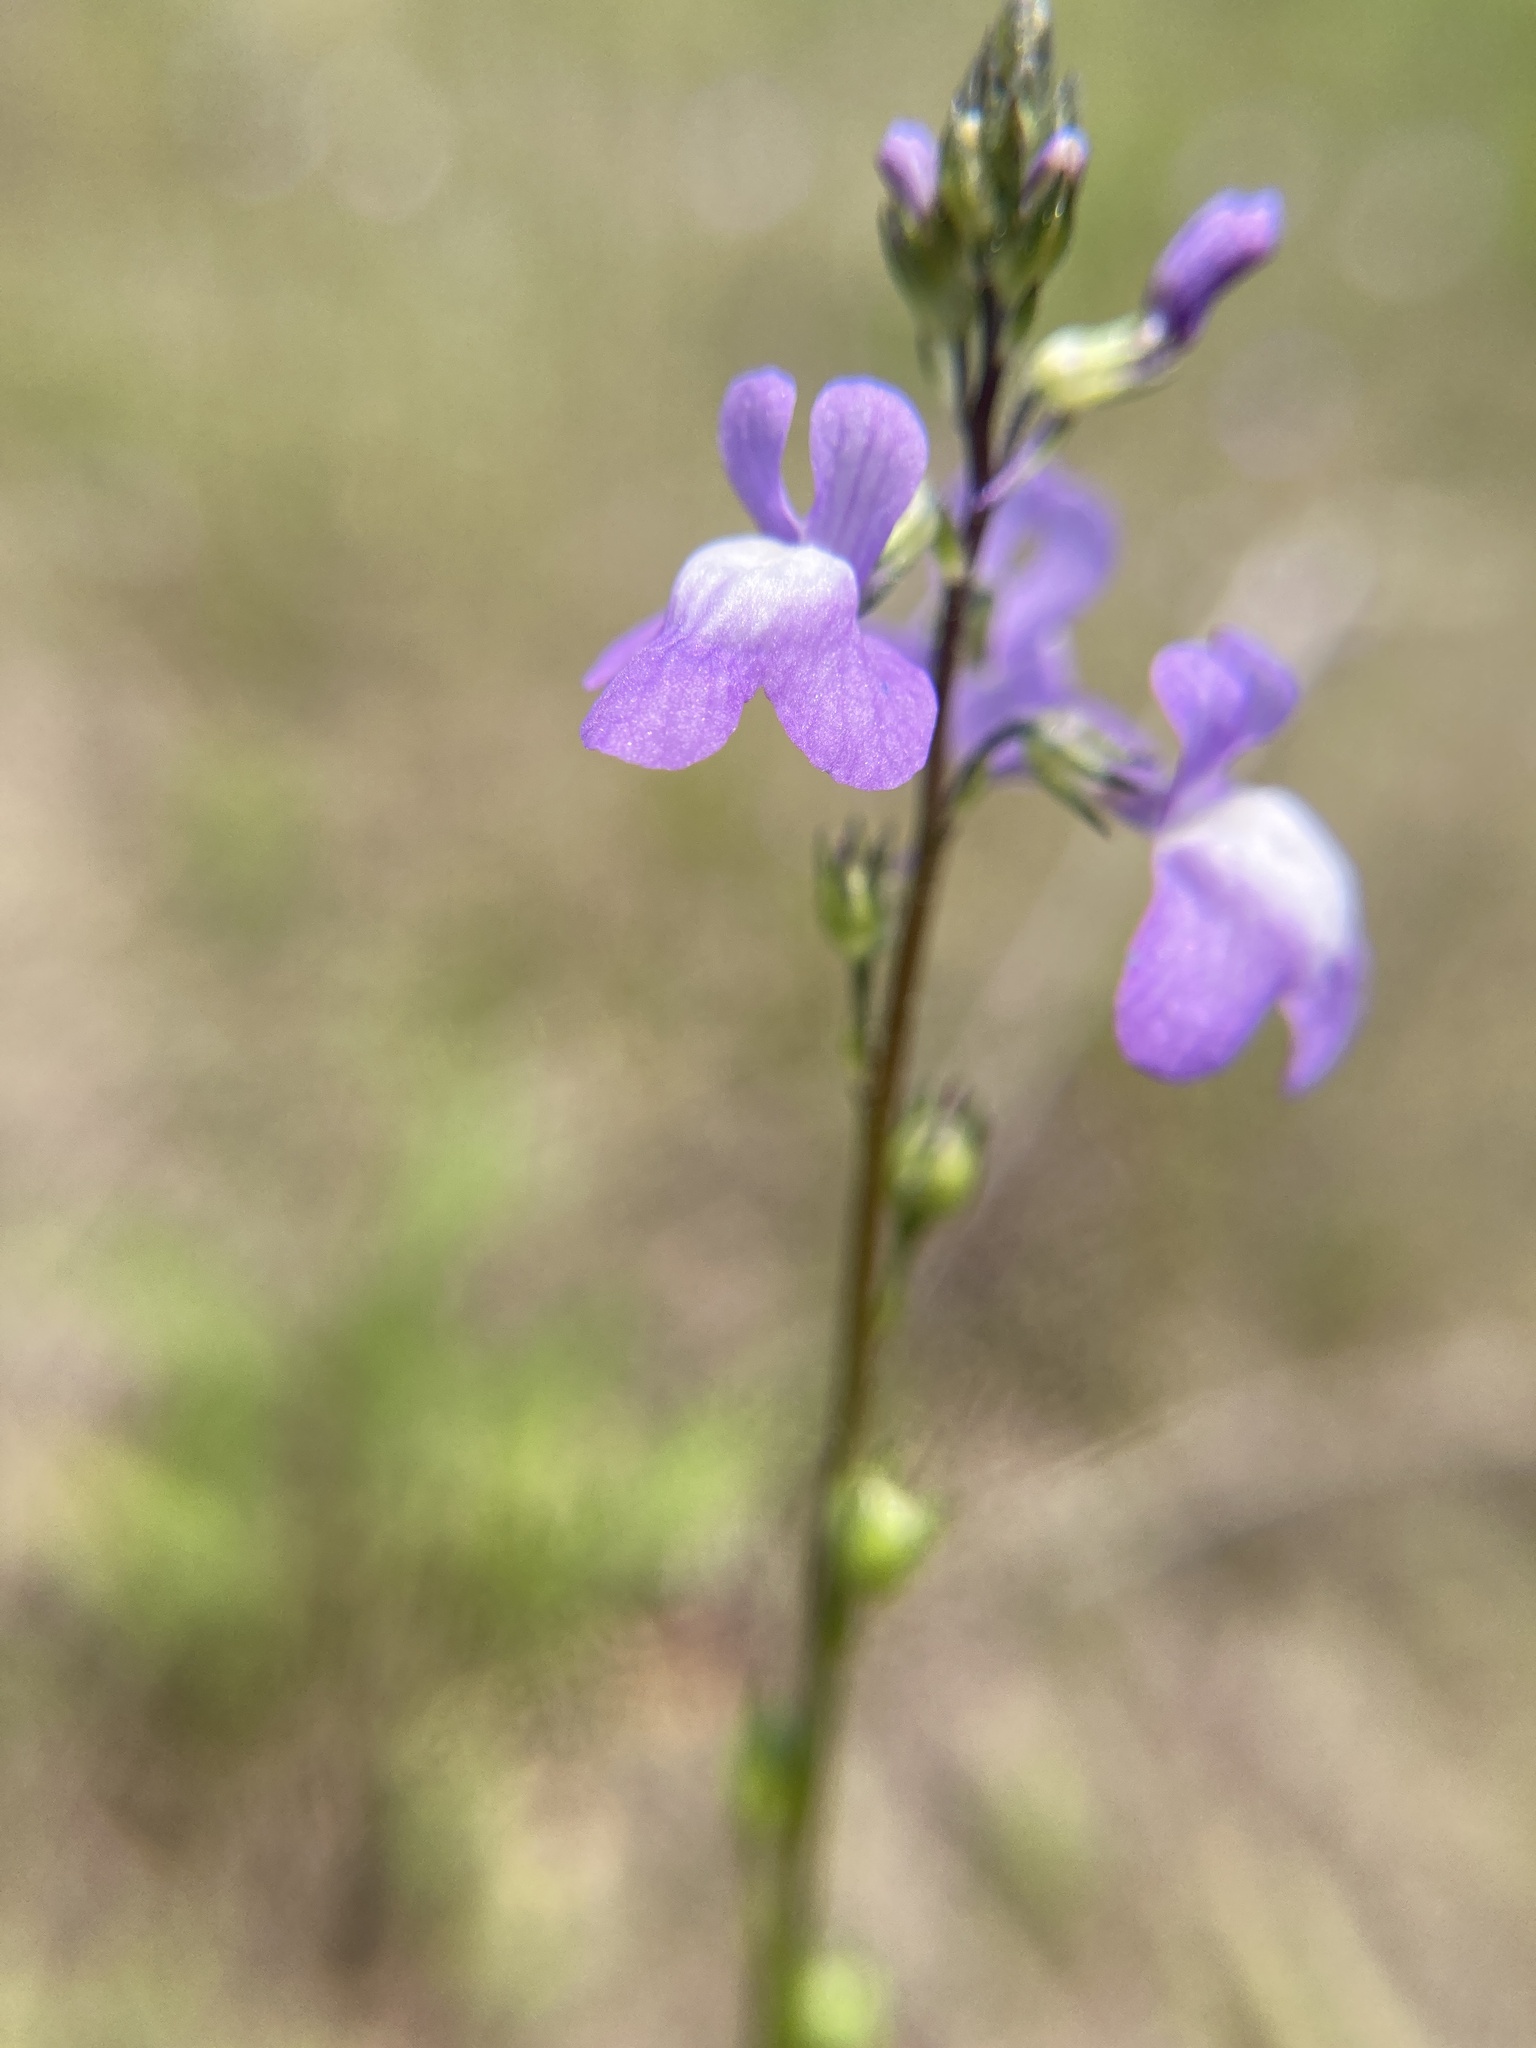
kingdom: Plantae
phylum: Tracheophyta
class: Magnoliopsida
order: Lamiales
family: Plantaginaceae
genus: Nuttallanthus
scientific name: Nuttallanthus canadensis
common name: Blue toadflax
